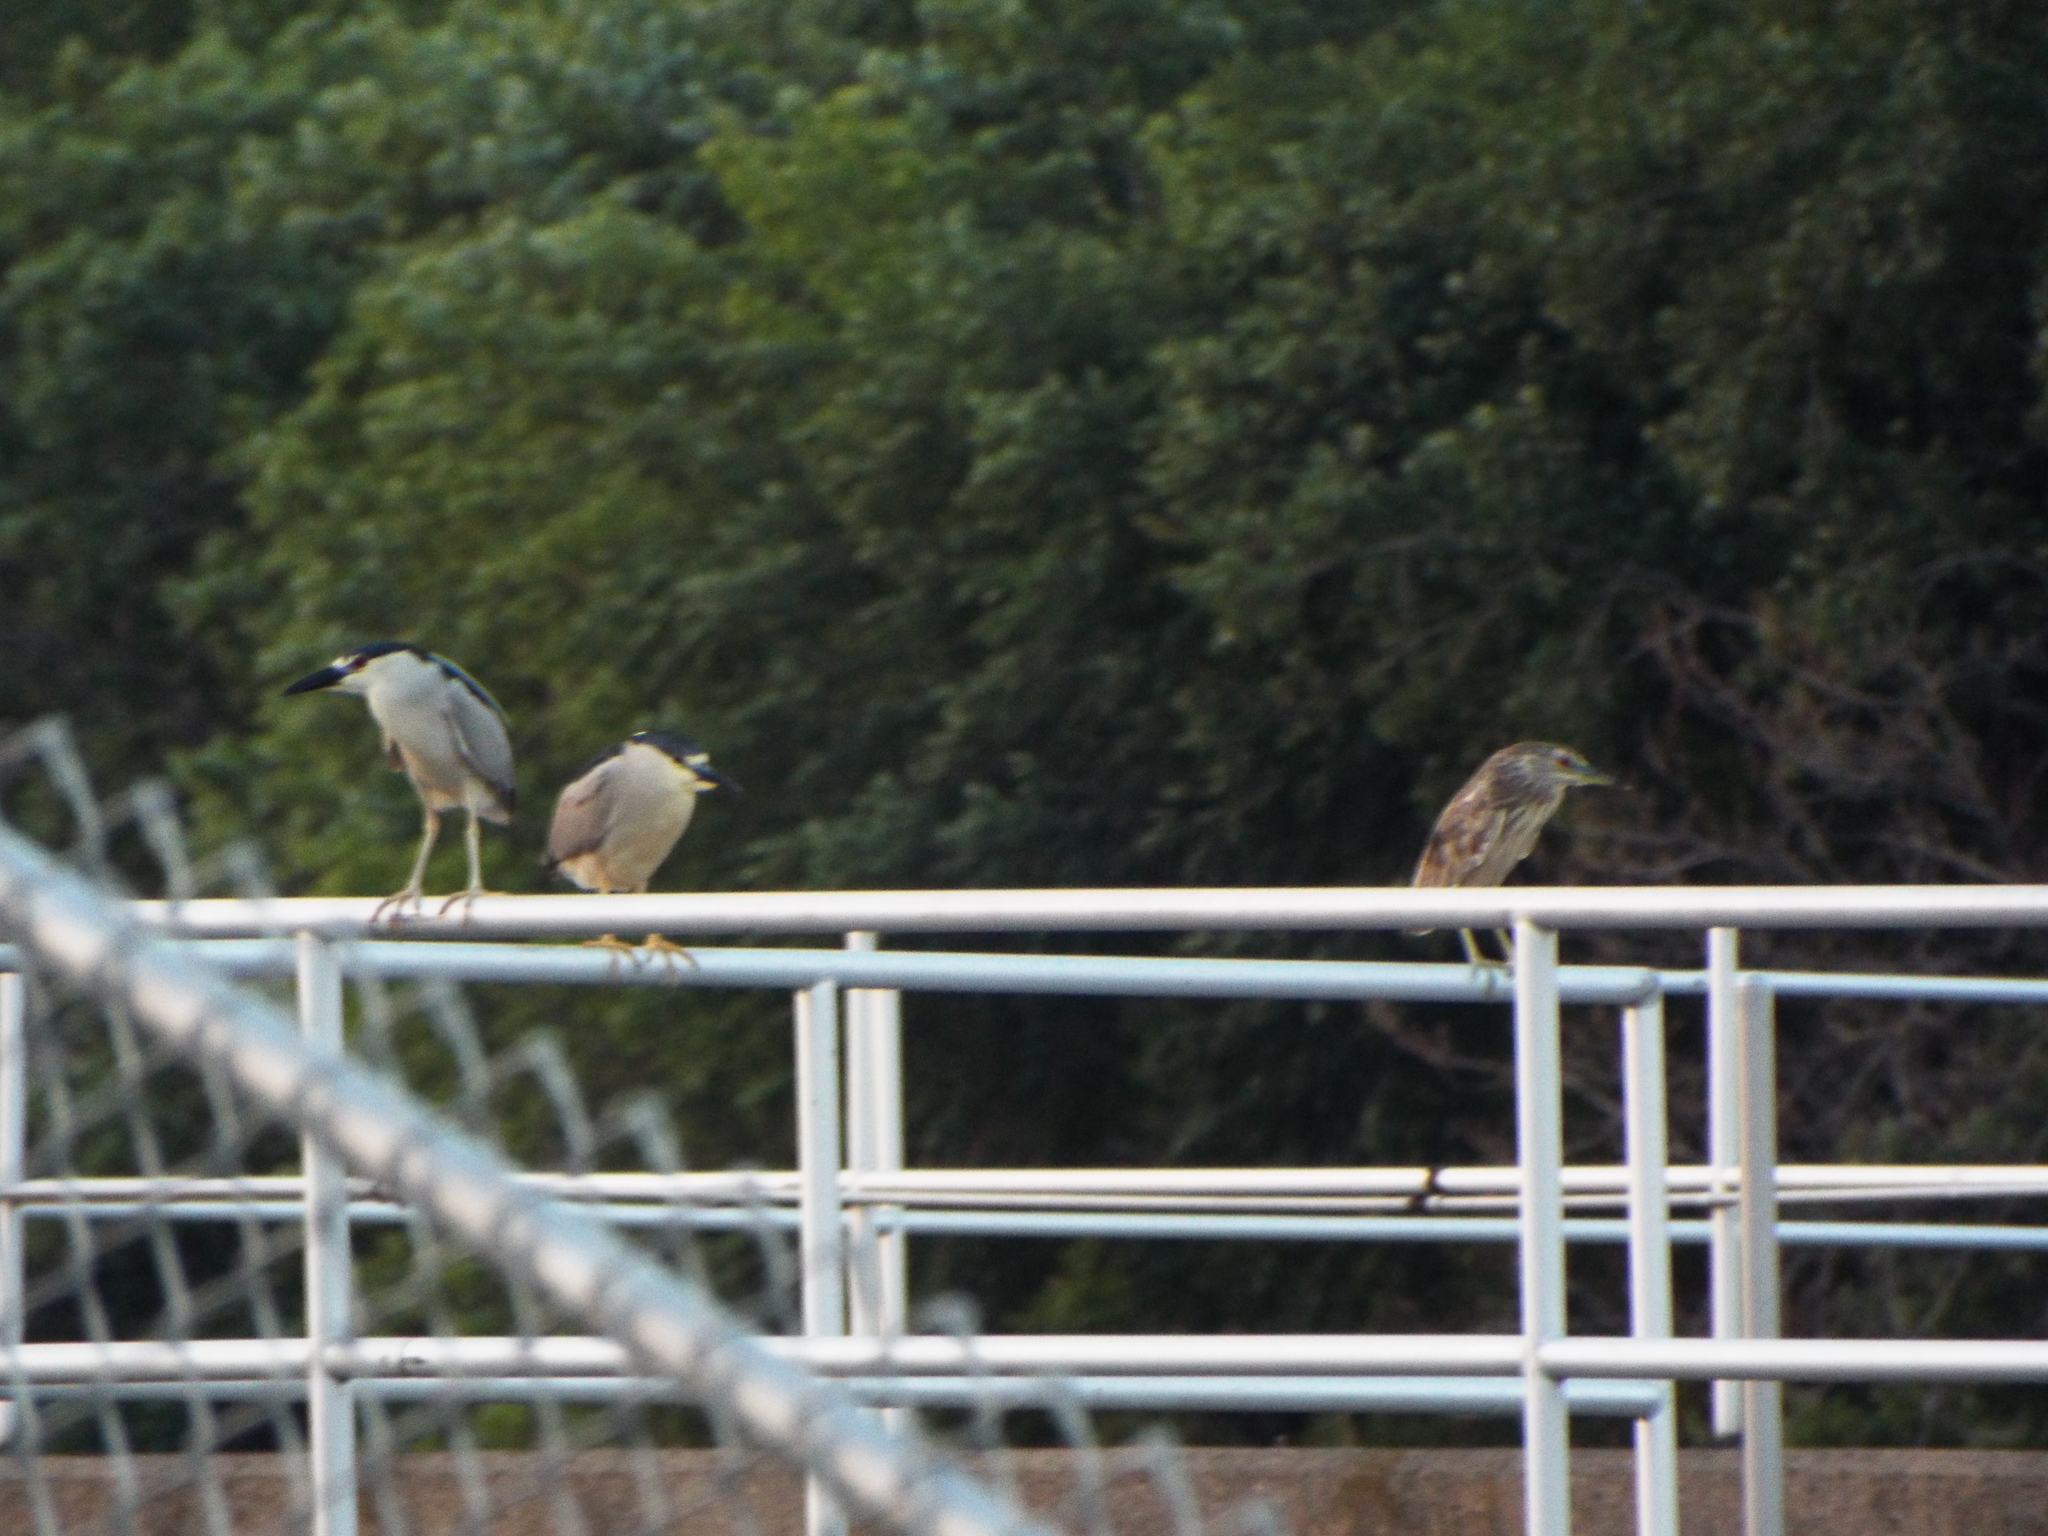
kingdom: Animalia
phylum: Chordata
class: Aves
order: Pelecaniformes
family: Ardeidae
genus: Nycticorax
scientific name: Nycticorax nycticorax
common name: Black-crowned night heron
